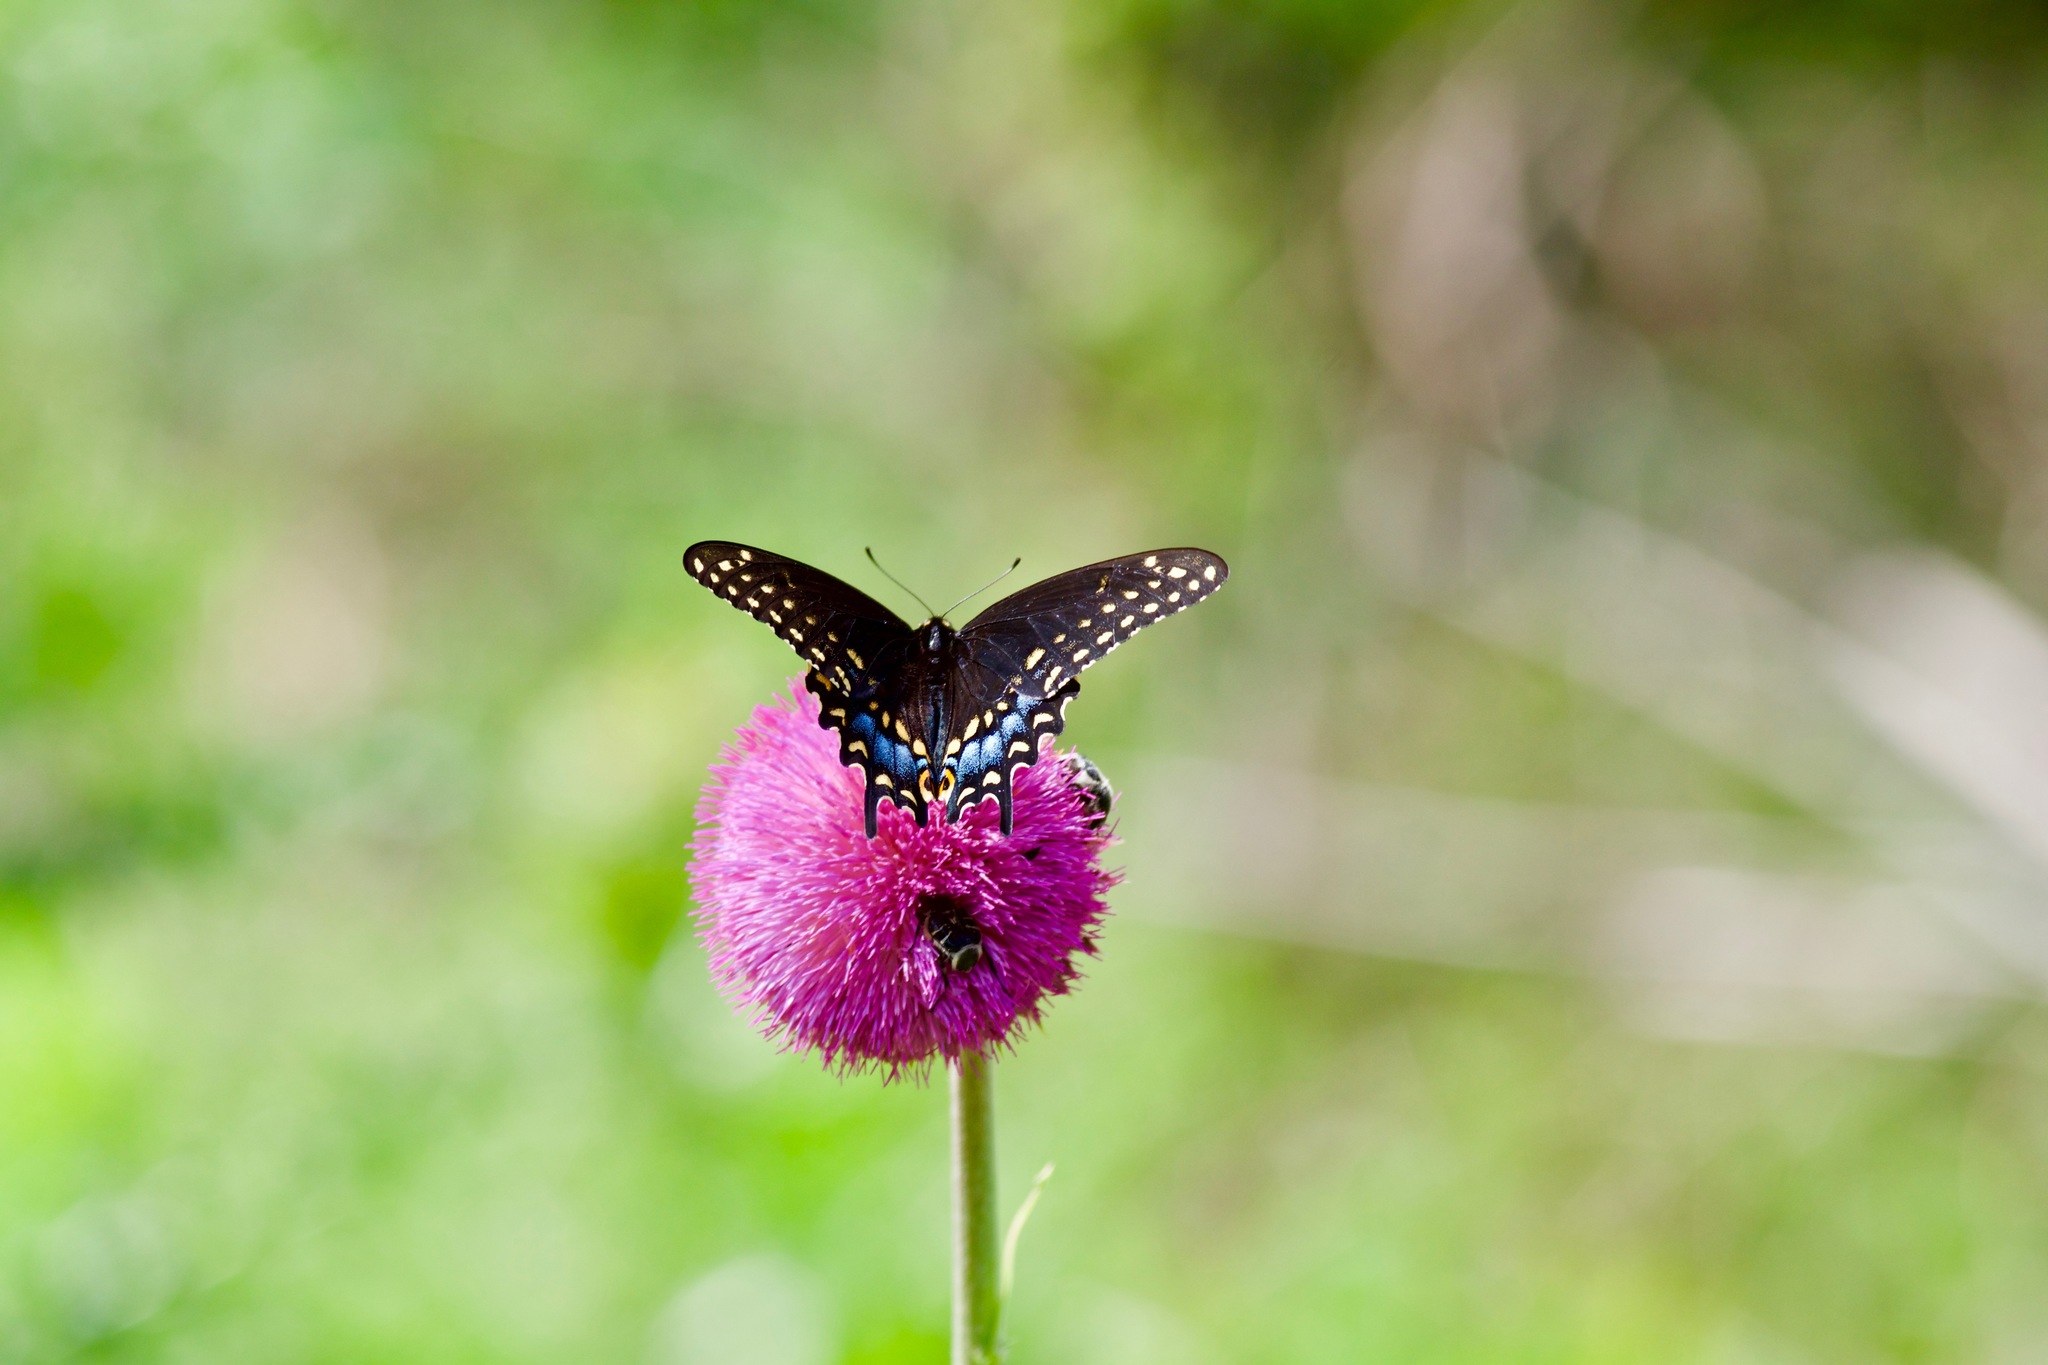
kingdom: Animalia
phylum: Arthropoda
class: Insecta
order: Lepidoptera
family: Papilionidae
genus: Papilio
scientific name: Papilio polyxenes
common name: Black swallowtail
